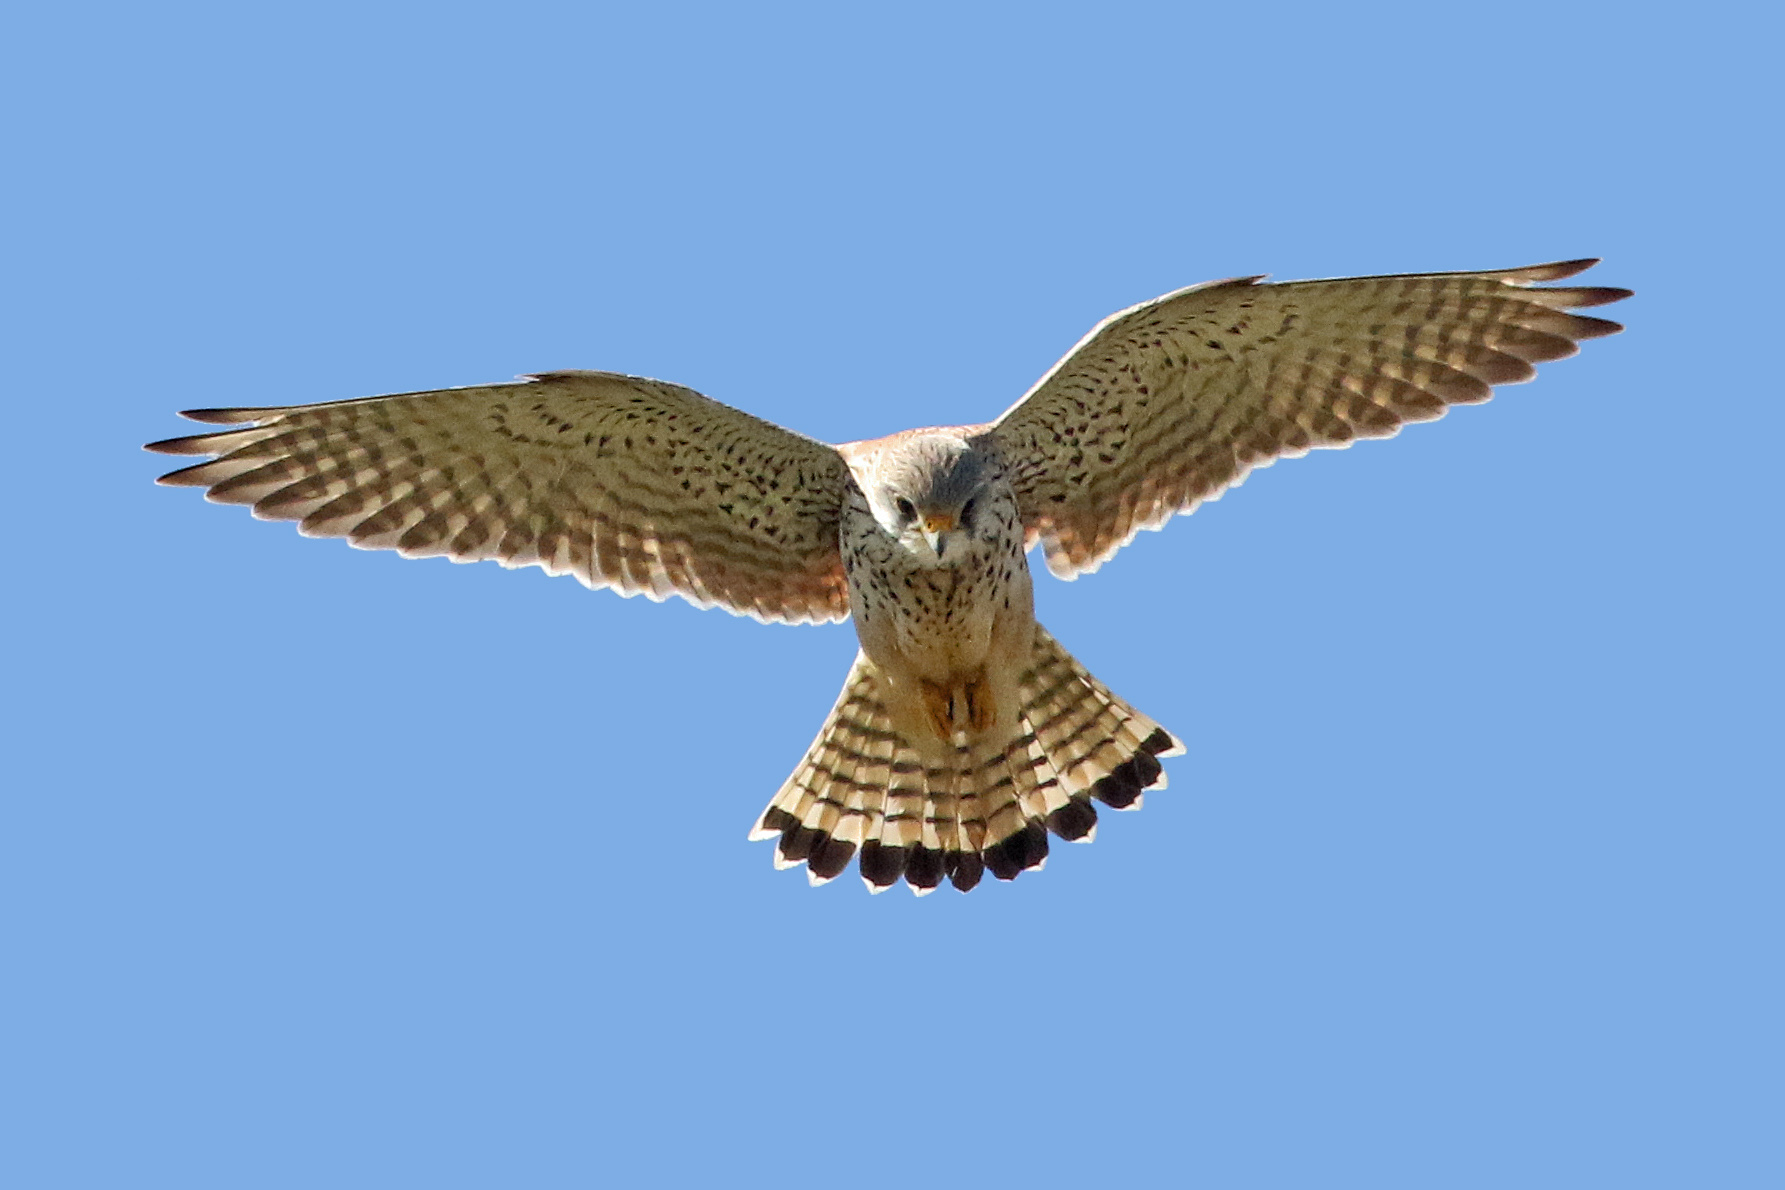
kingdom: Animalia
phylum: Chordata
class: Aves
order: Falconiformes
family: Falconidae
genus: Falco
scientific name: Falco tinnunculus
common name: Common kestrel
